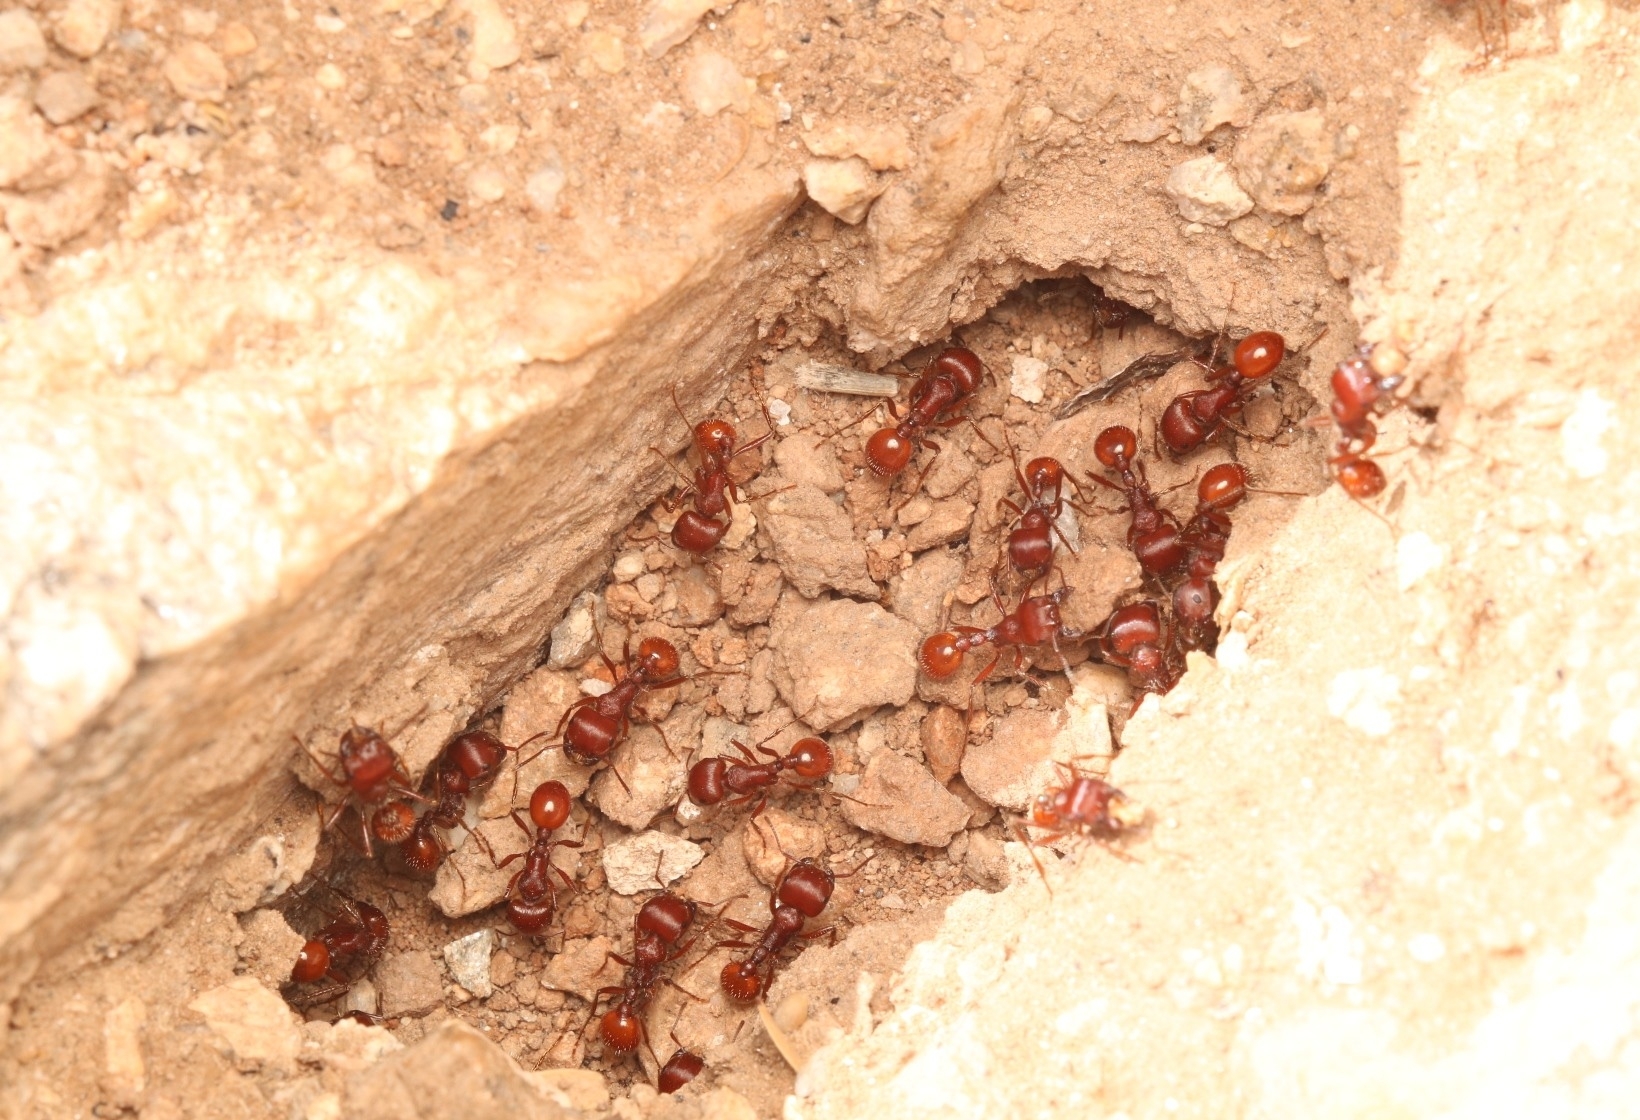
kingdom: Animalia
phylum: Arthropoda
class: Insecta
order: Hymenoptera
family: Formicidae
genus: Pogonomyrmex
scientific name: Pogonomyrmex barbatus
